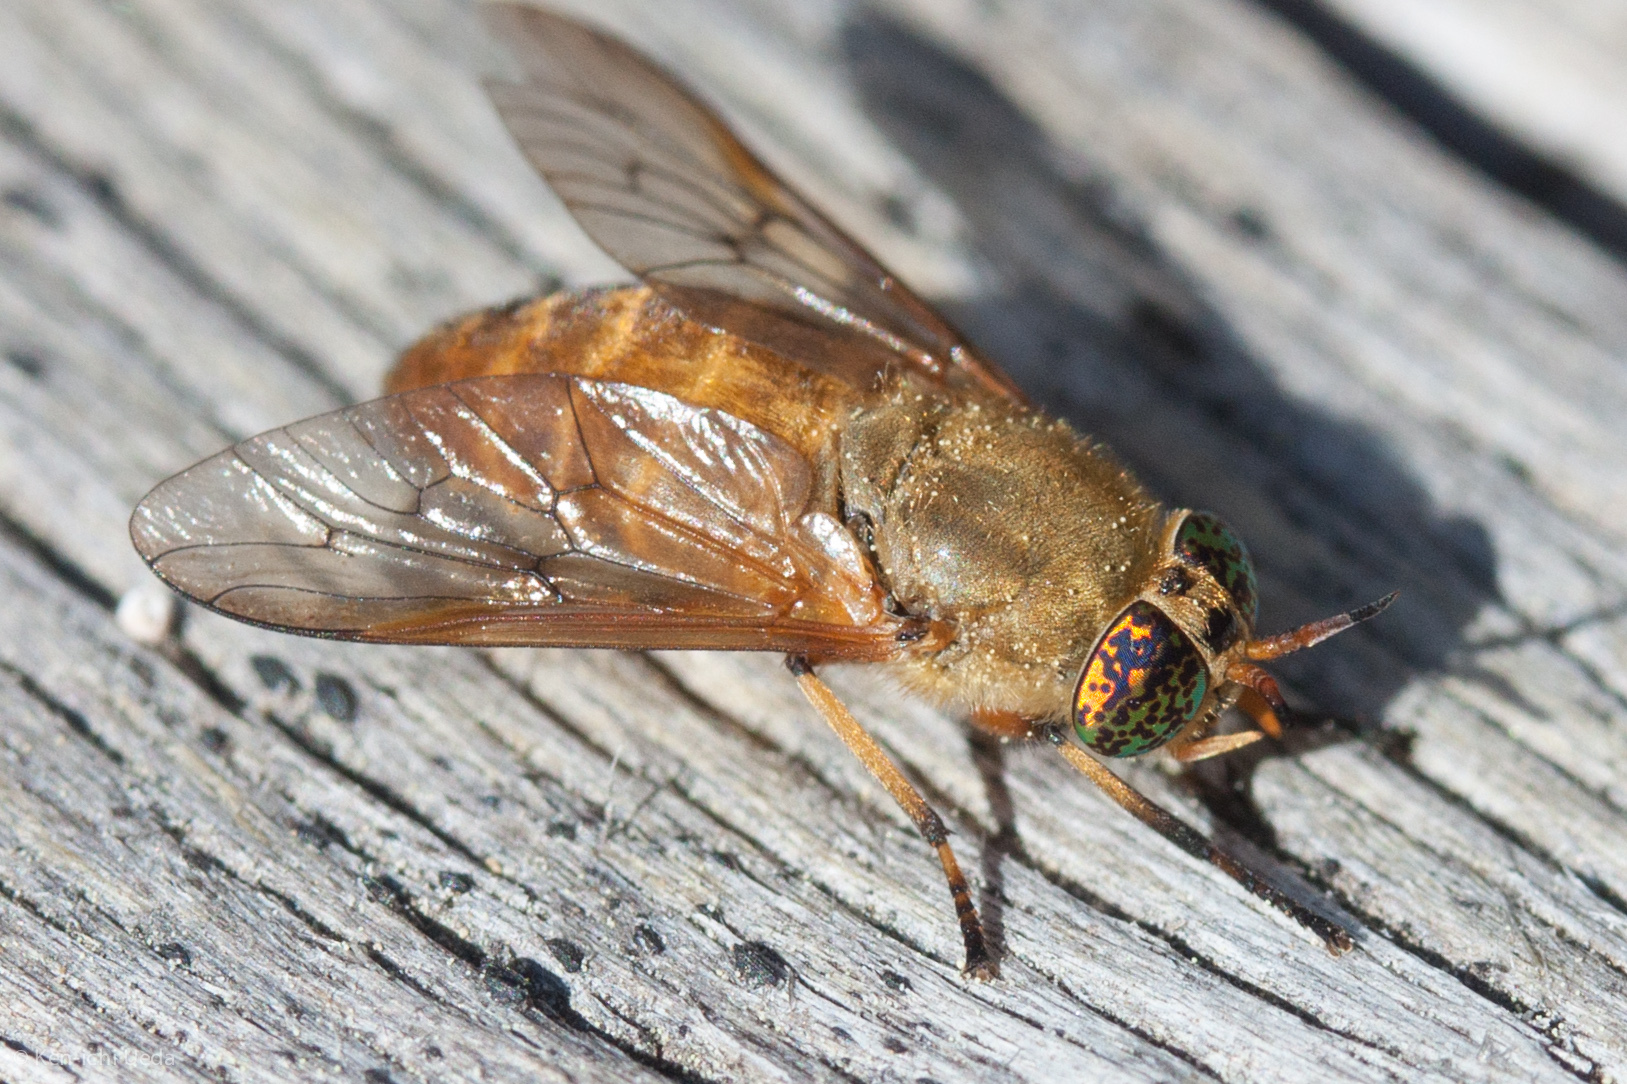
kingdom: Animalia
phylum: Arthropoda
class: Insecta
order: Diptera
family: Tabanidae
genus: Silvius
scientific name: Silvius gigantulus
